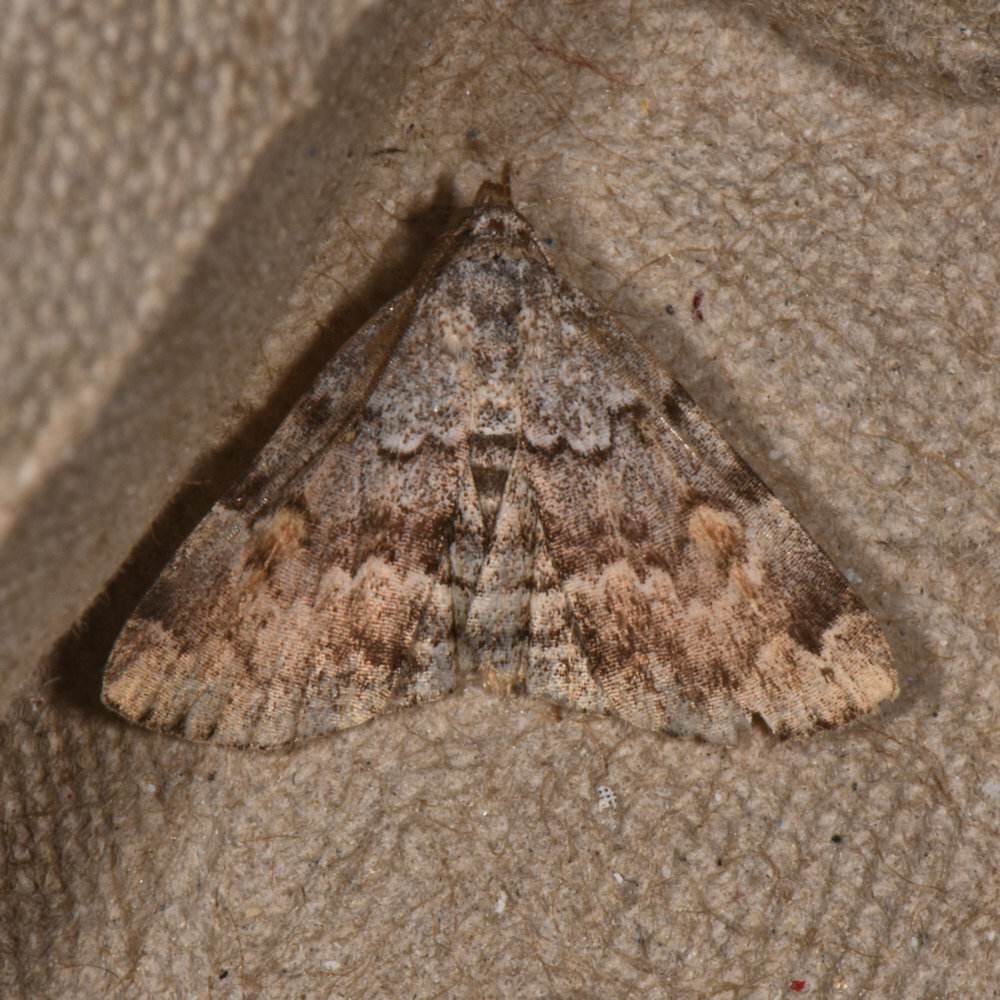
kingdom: Animalia
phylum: Arthropoda
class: Insecta
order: Lepidoptera
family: Erebidae
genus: Idia
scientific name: Idia americalis
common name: American idia moth
